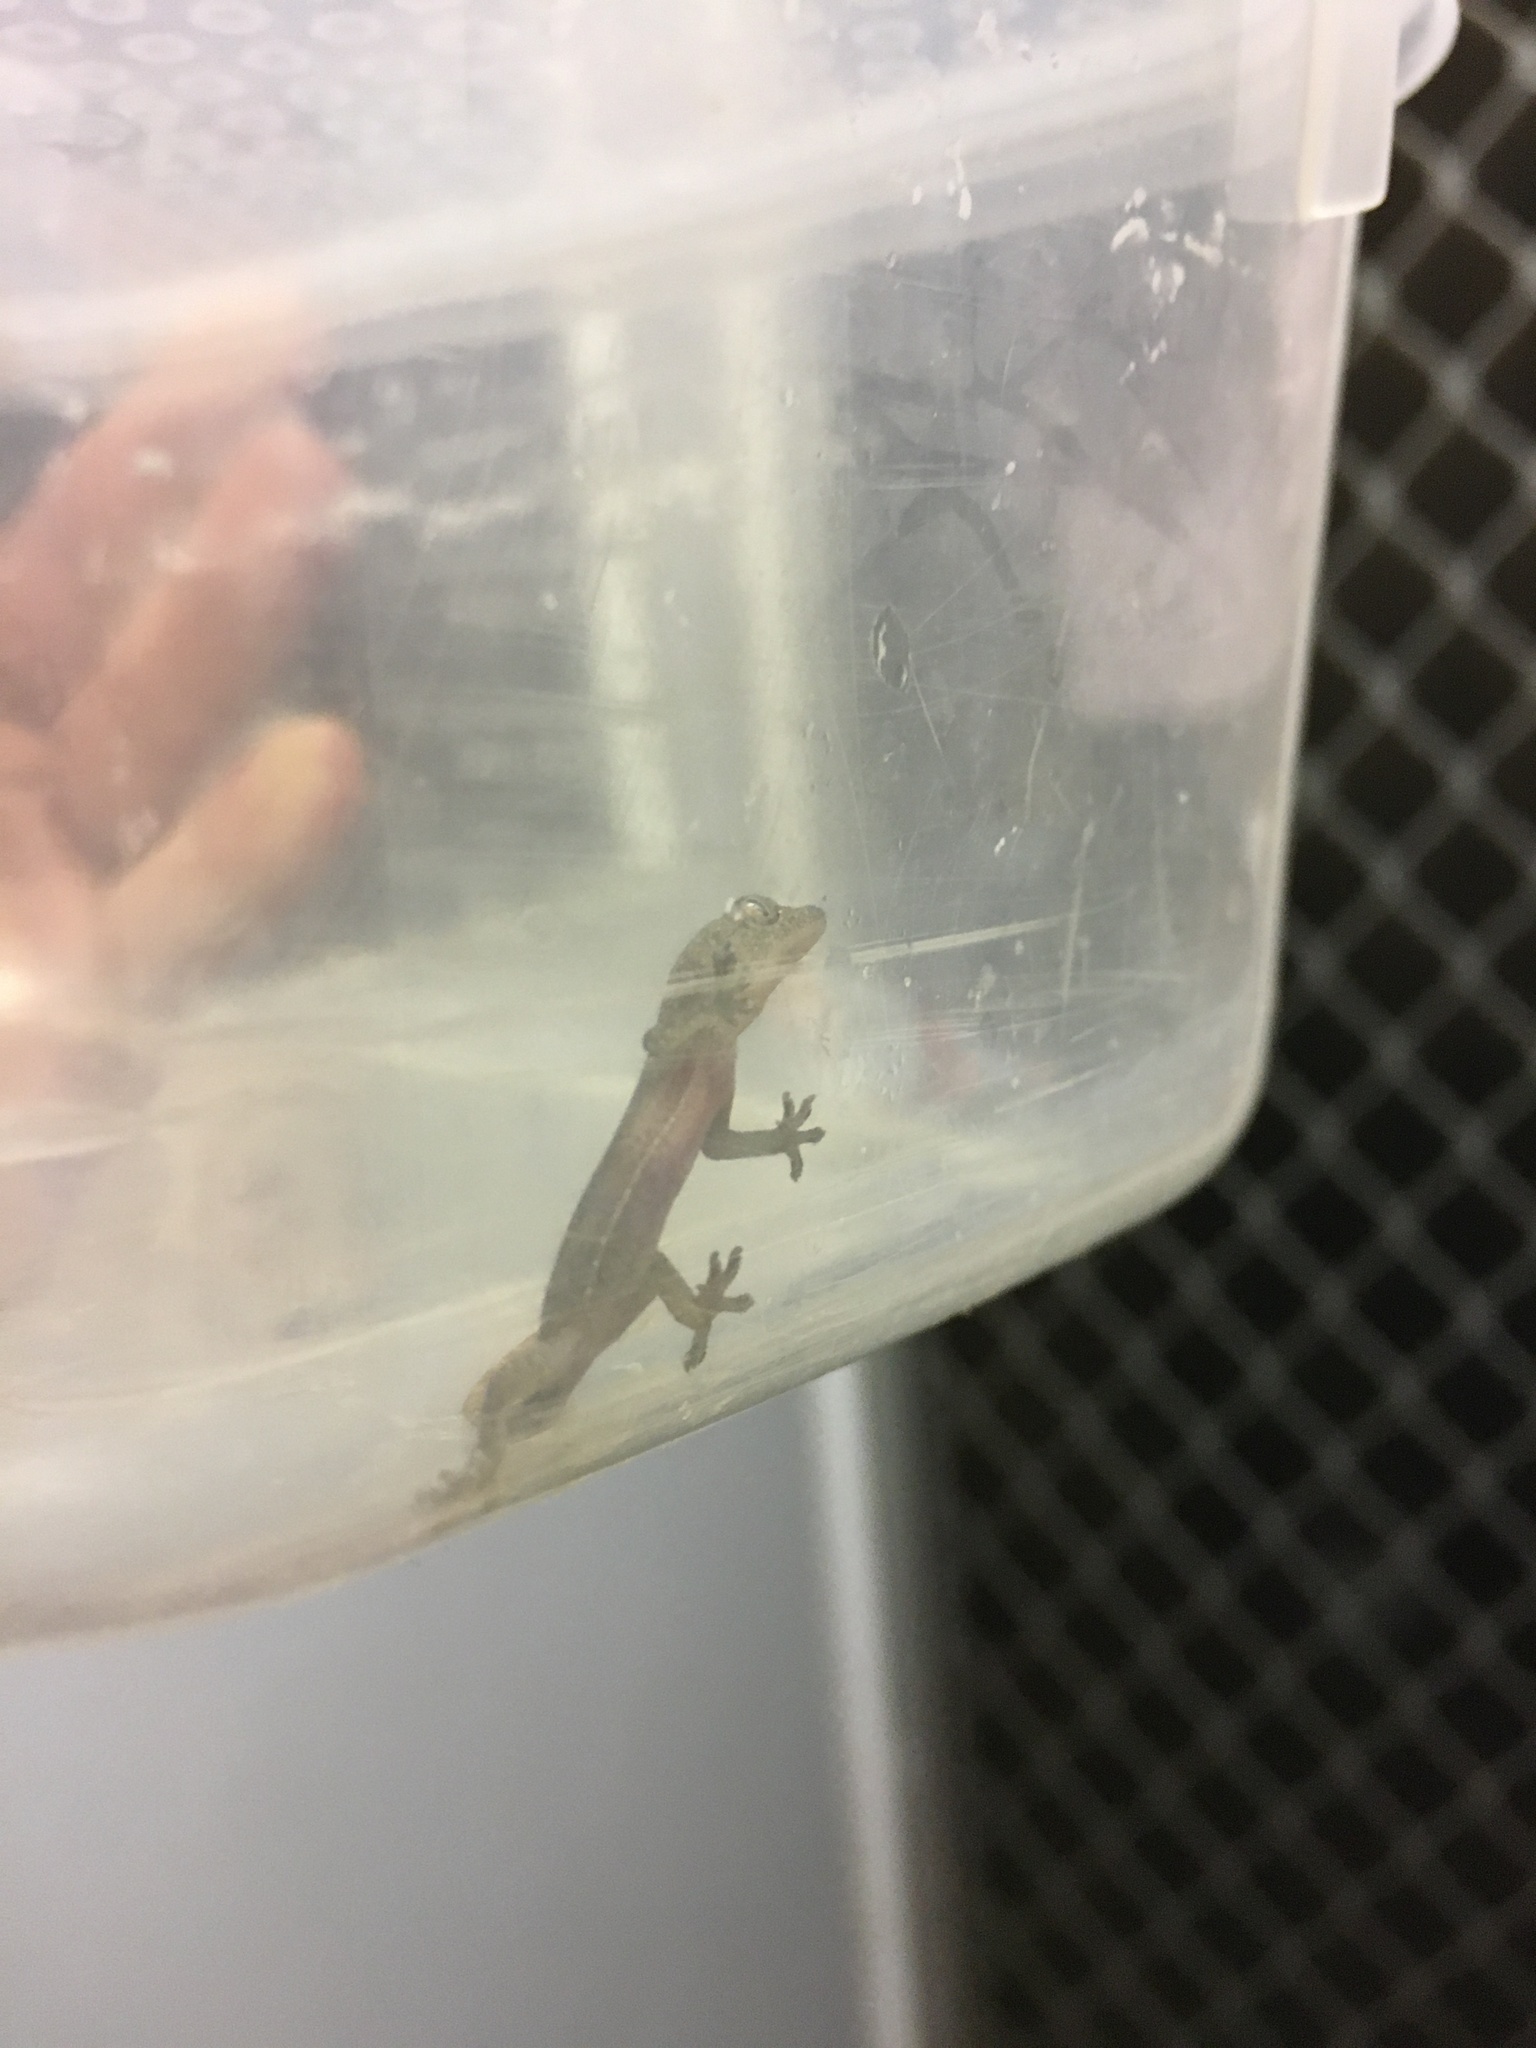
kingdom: Animalia
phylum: Chordata
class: Squamata
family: Gekkonidae
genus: Hemidactylus
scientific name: Hemidactylus frenatus
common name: Common house gecko
